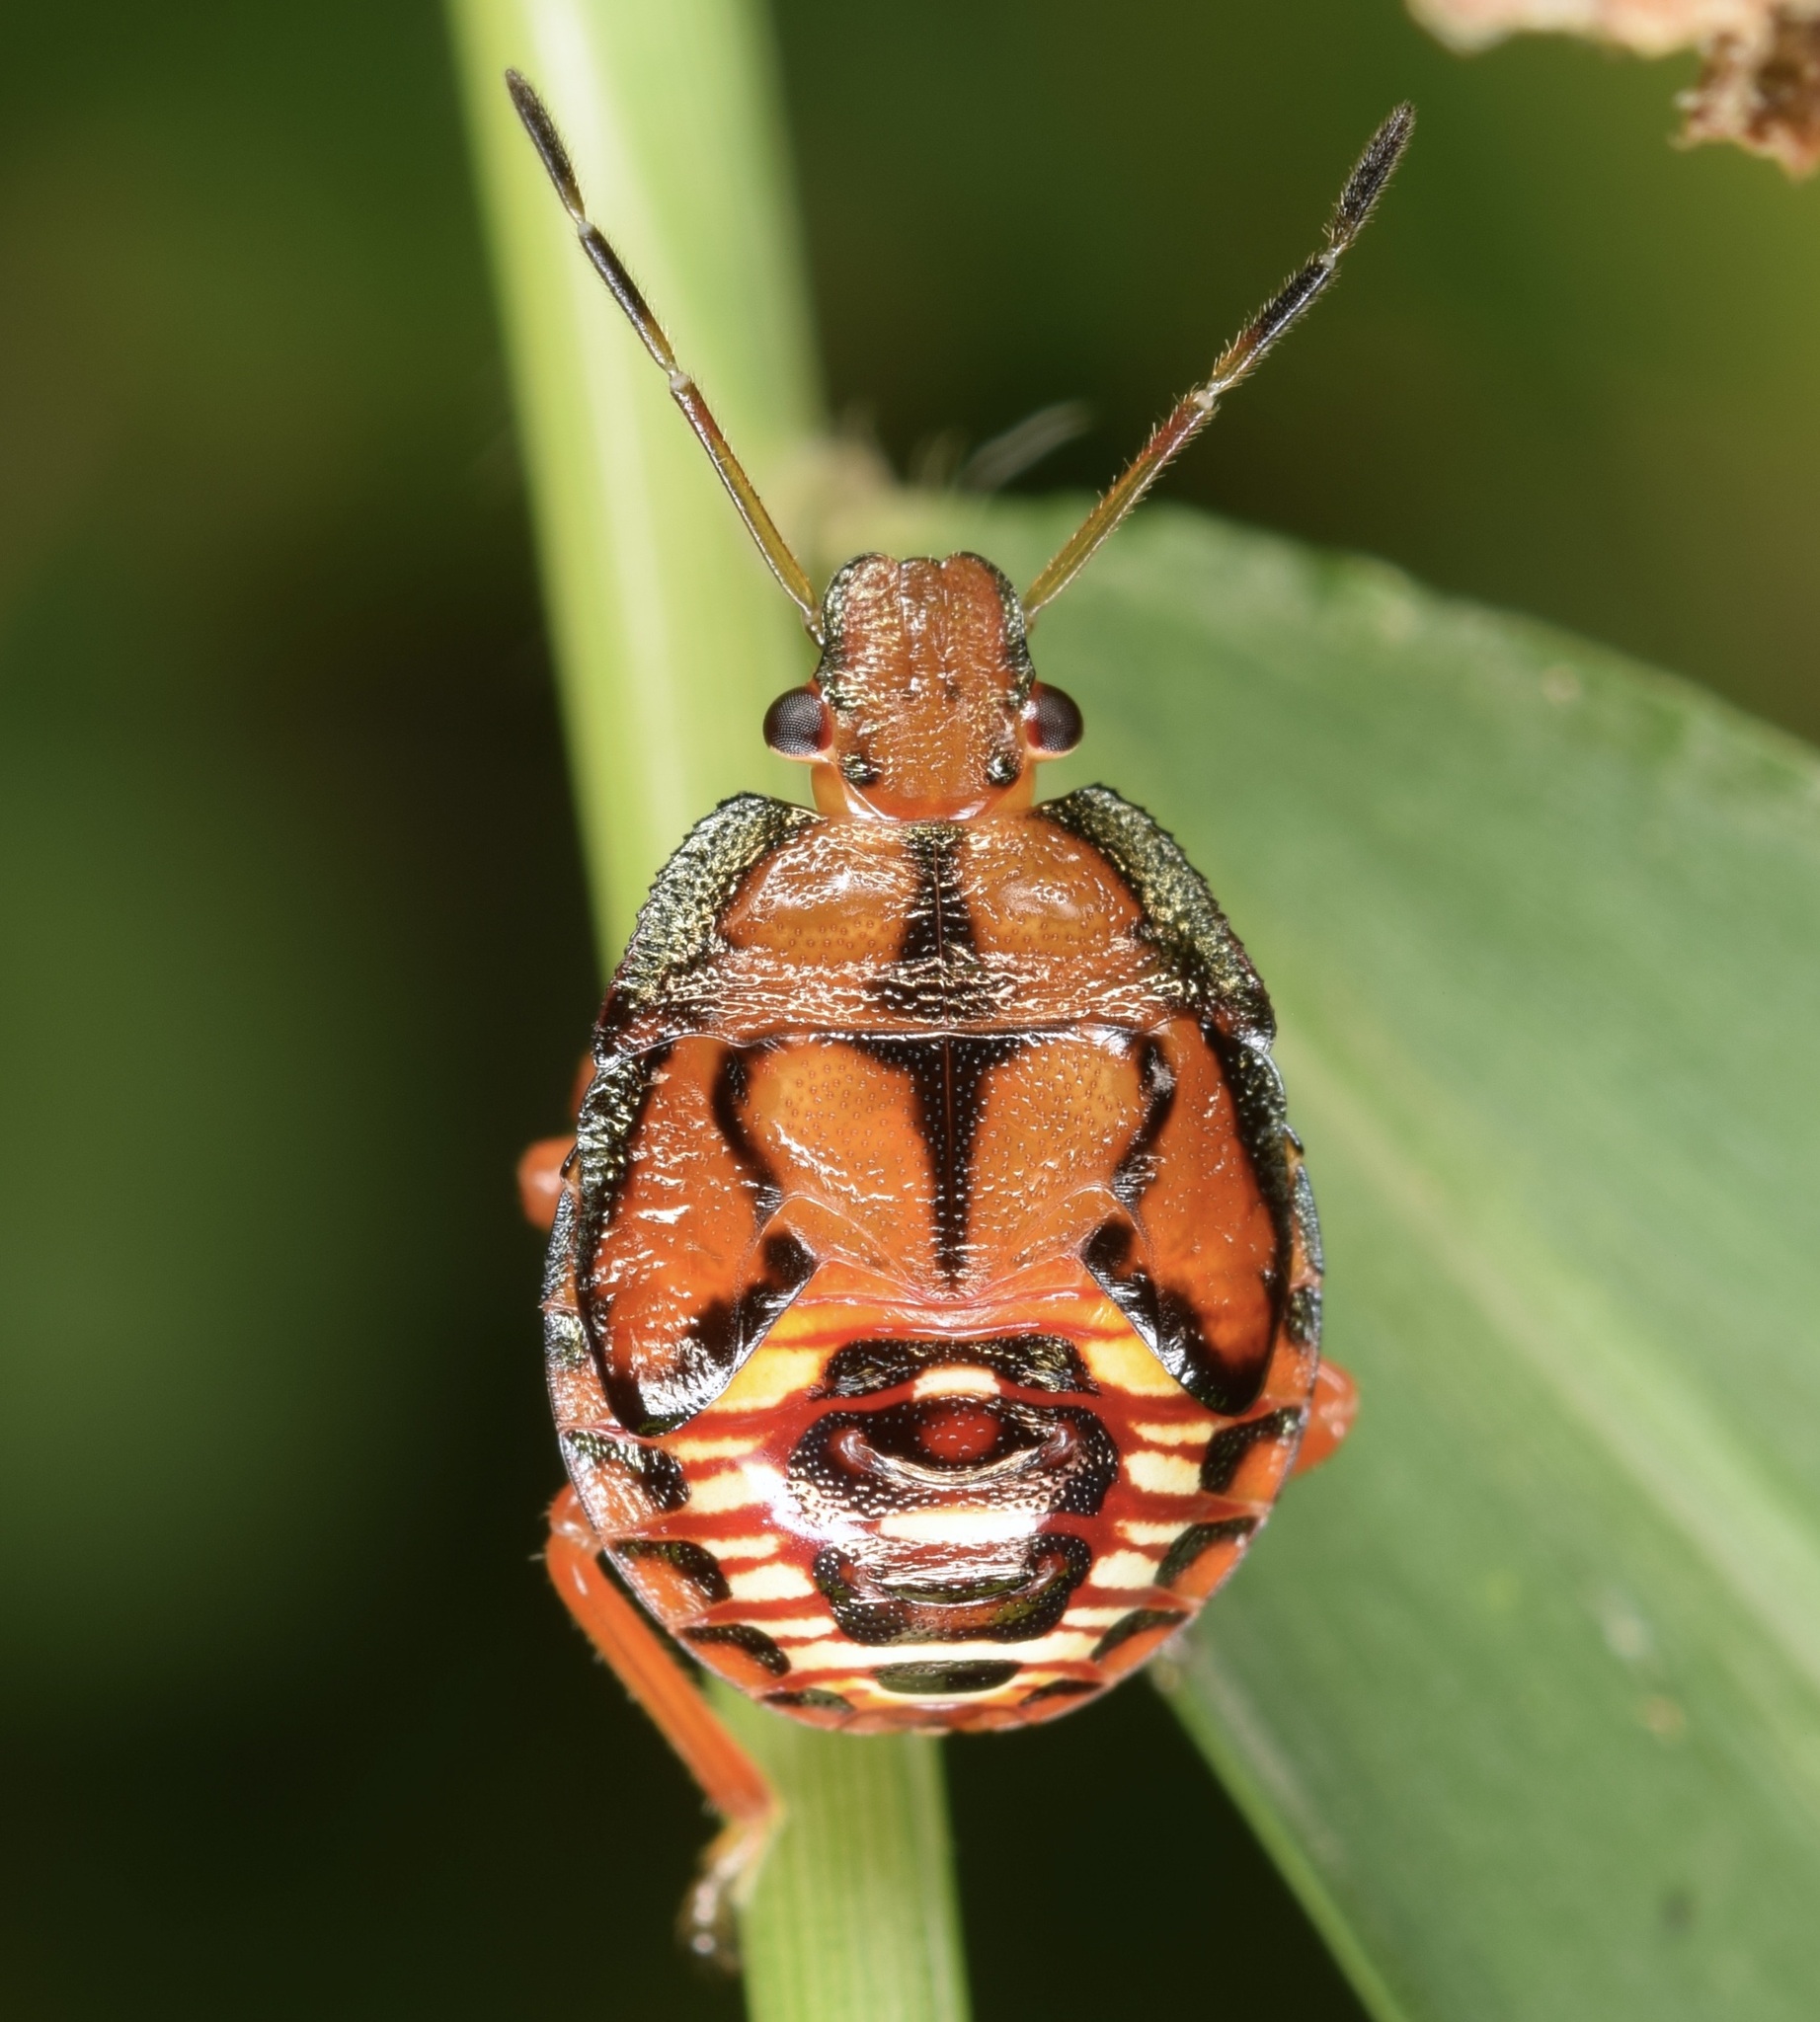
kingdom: Animalia
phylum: Arthropoda
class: Insecta
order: Hemiptera
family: Pentatomidae
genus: Podisus
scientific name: Podisus maculiventris
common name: Spined soldier bug
